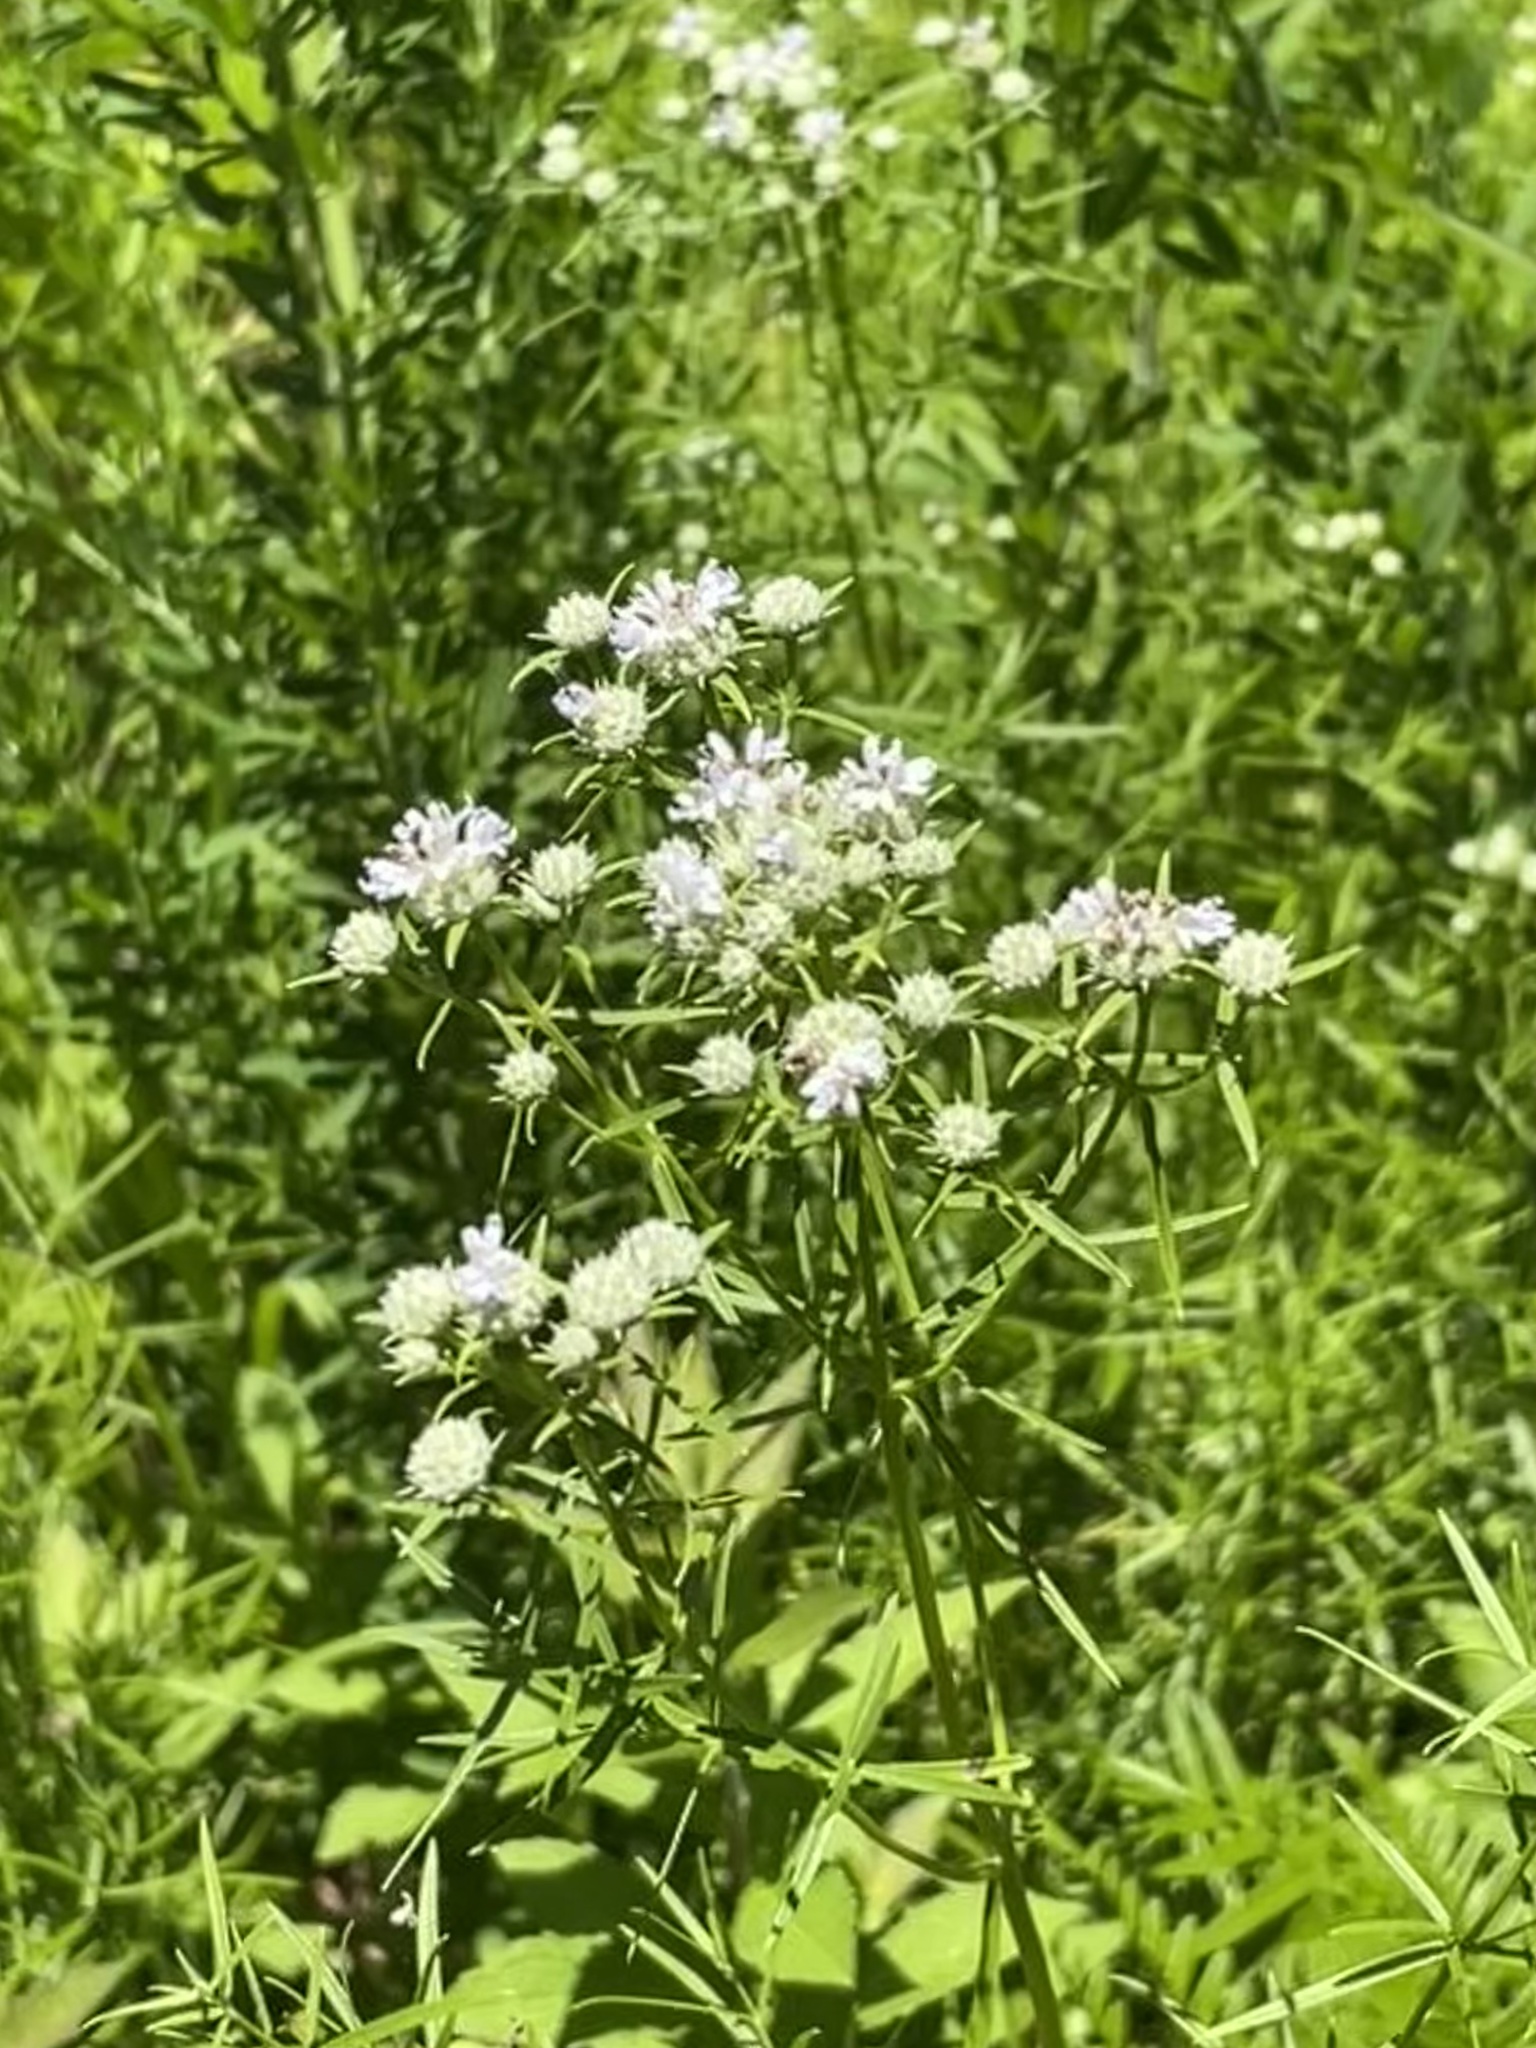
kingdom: Plantae
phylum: Tracheophyta
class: Magnoliopsida
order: Lamiales
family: Lamiaceae
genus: Pycnanthemum
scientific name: Pycnanthemum tenuifolium
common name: Narrow-leaf mountain-mint
